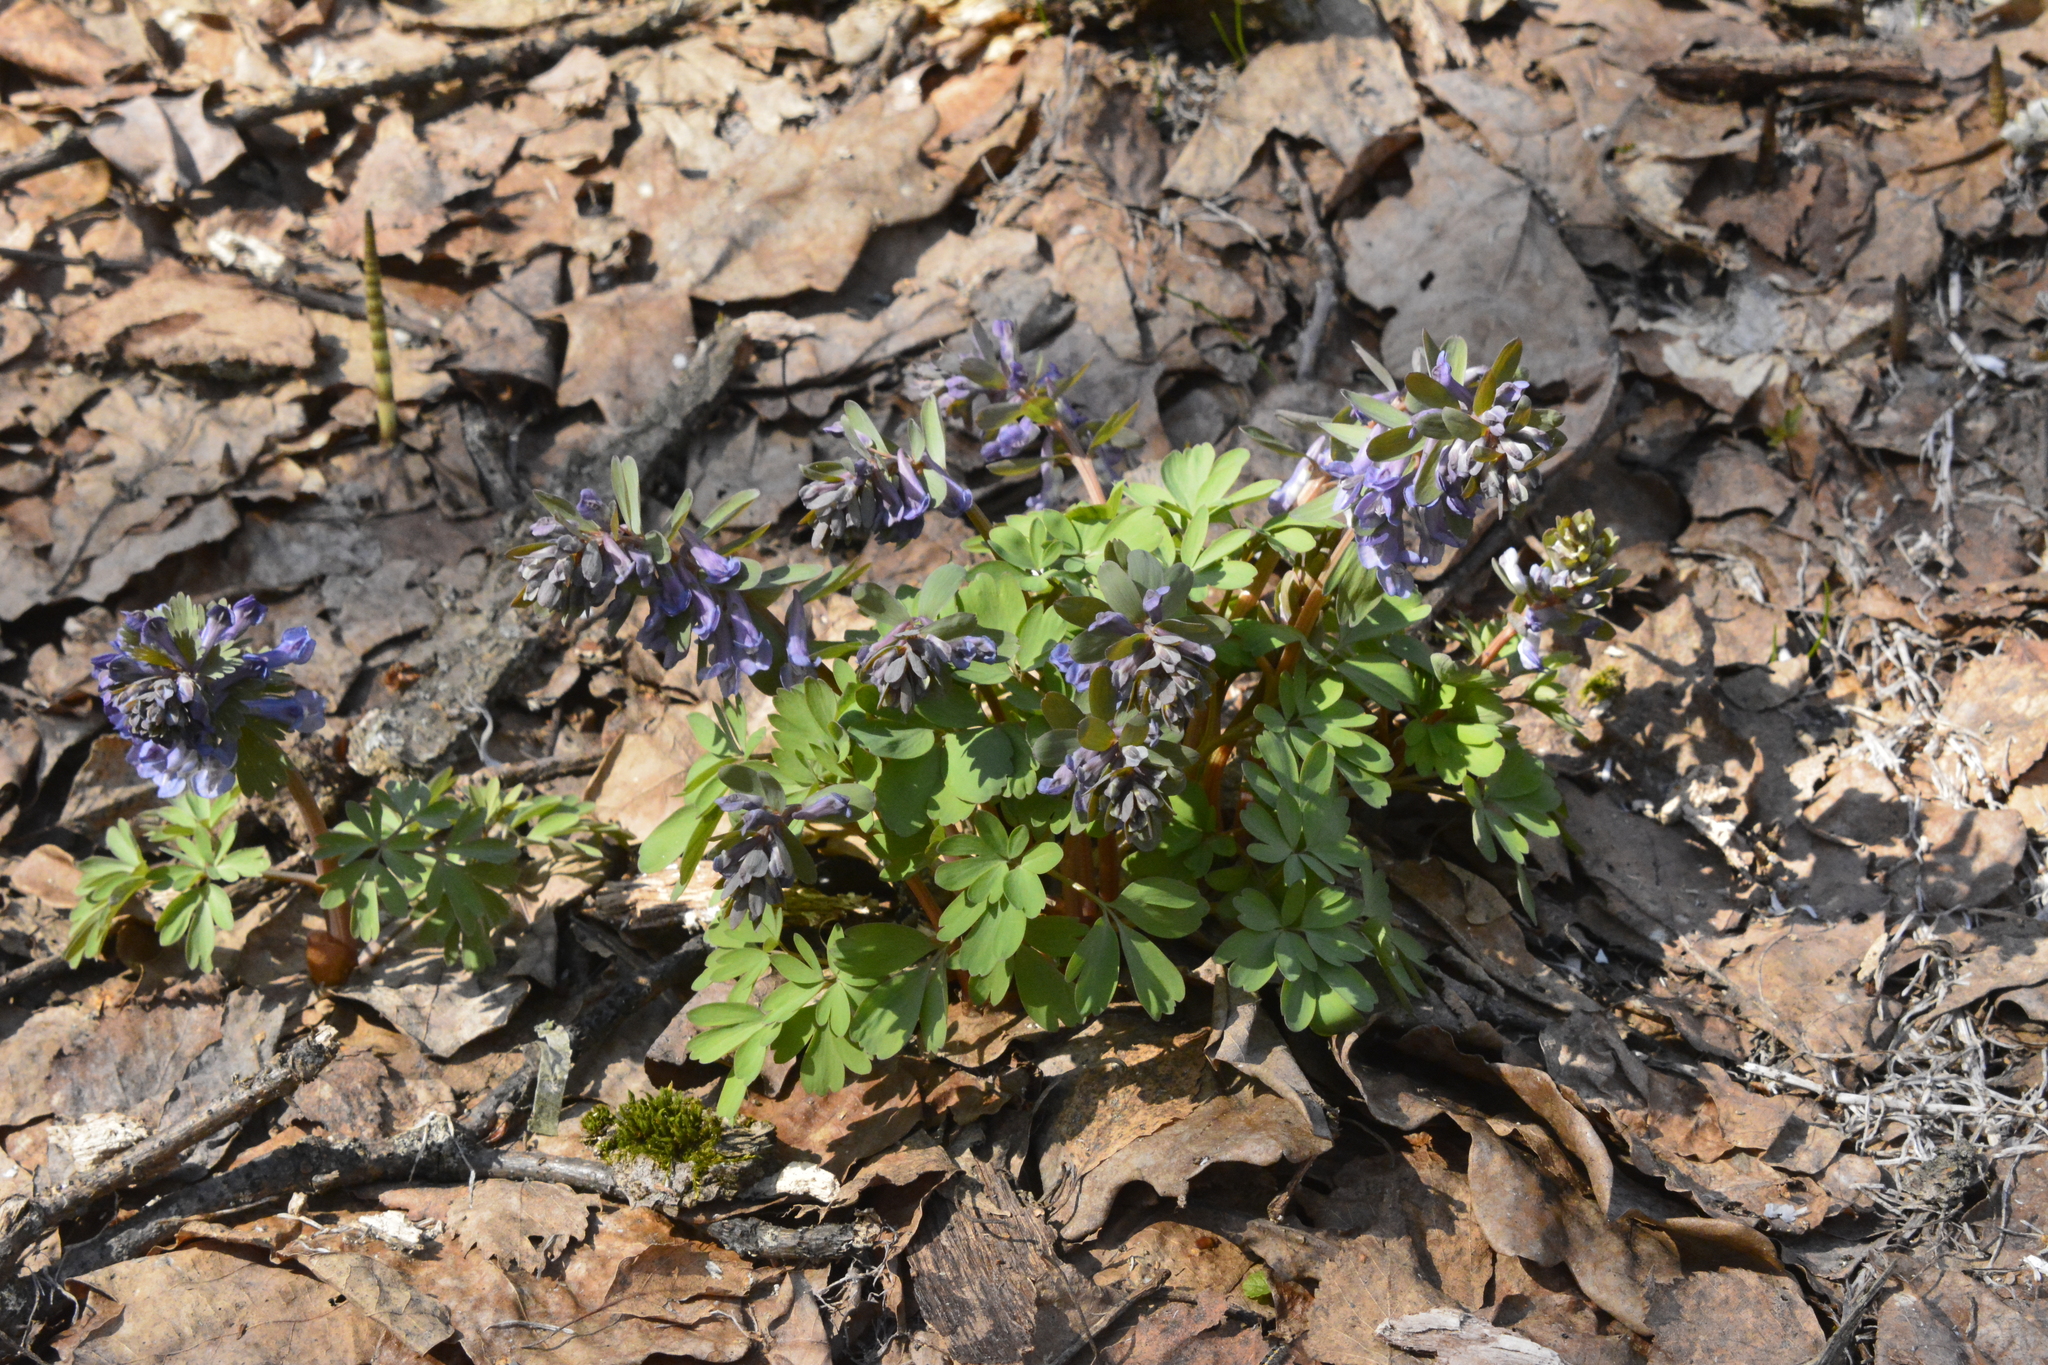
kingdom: Plantae
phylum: Tracheophyta
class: Magnoliopsida
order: Ranunculales
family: Papaveraceae
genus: Corydalis
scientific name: Corydalis solida
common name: Bird-in-a-bush
